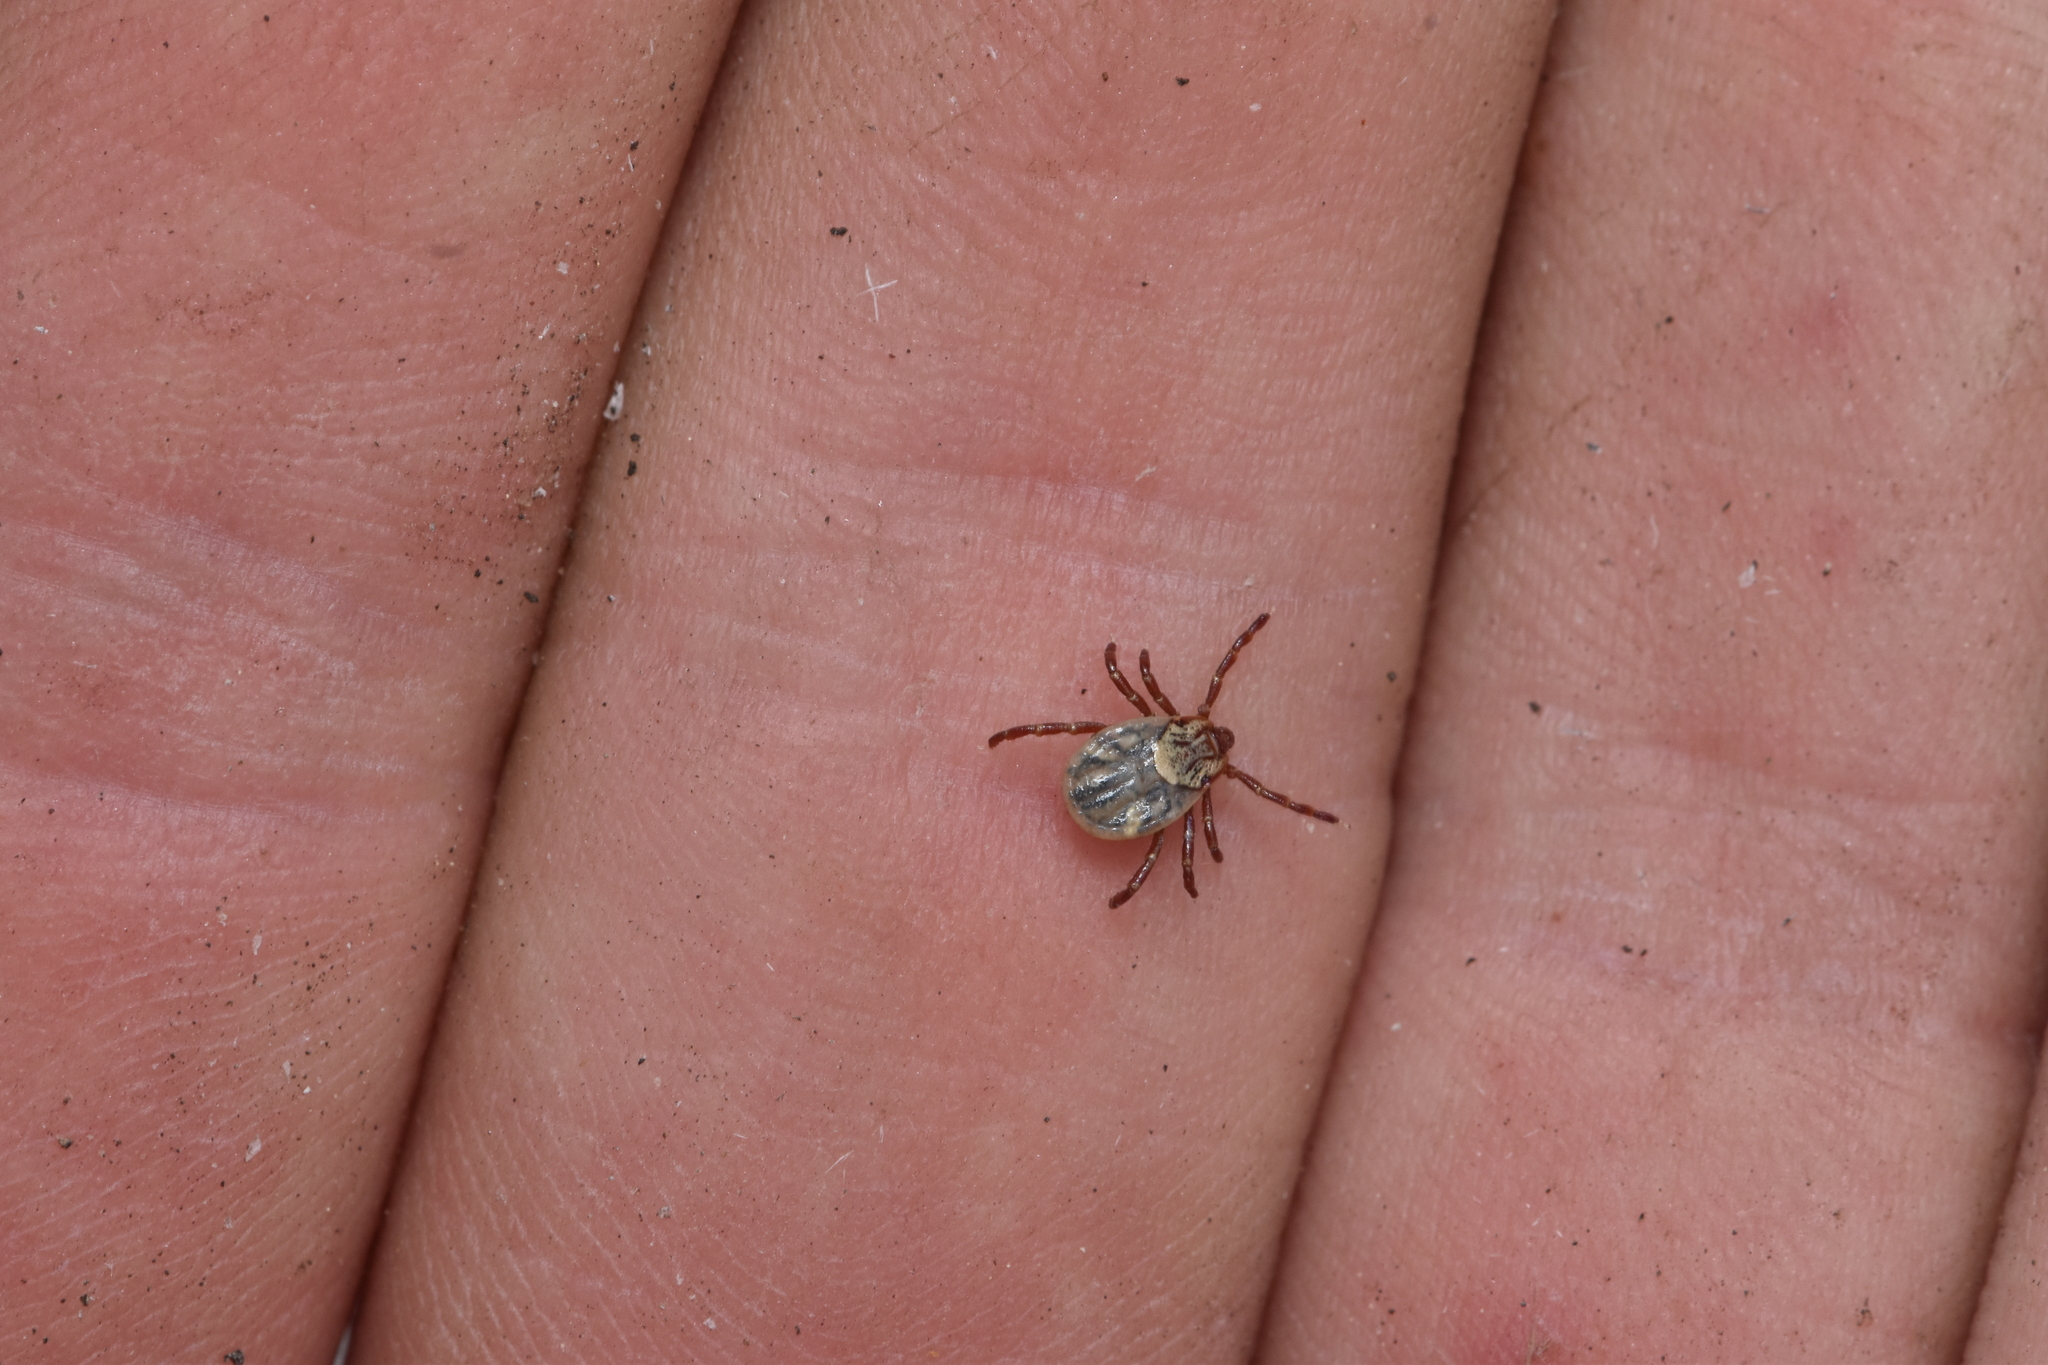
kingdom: Animalia
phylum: Arthropoda
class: Arachnida
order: Ixodida
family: Ixodidae
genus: Dermacentor
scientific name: Dermacentor variabilis
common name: American dog tick
